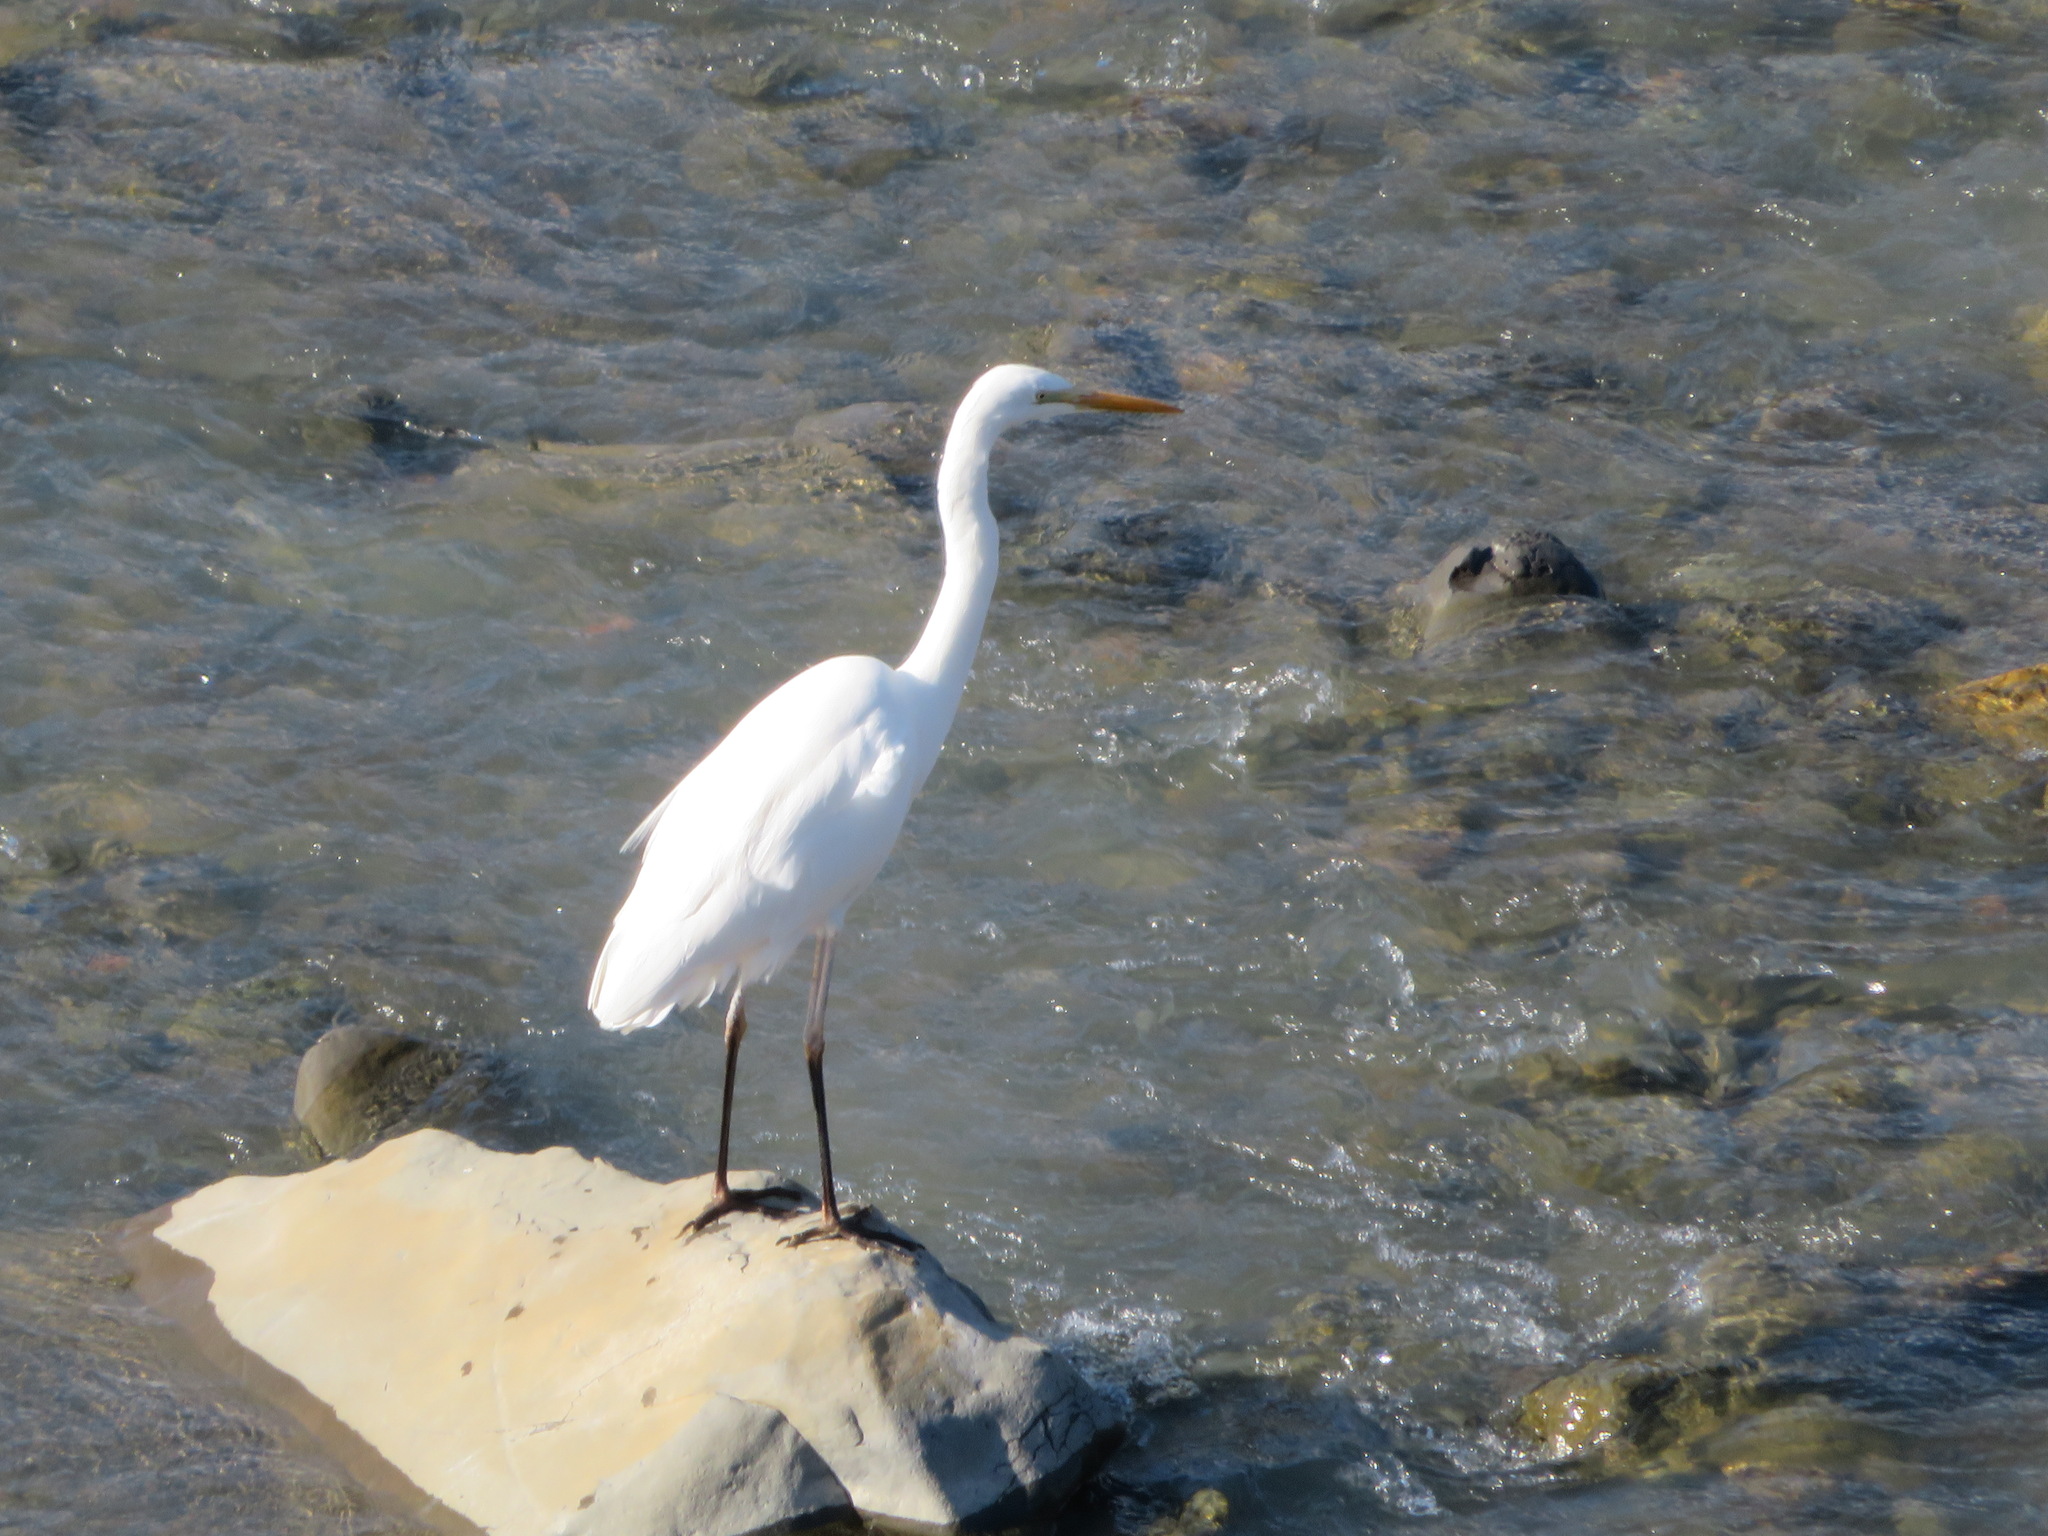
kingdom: Animalia
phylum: Chordata
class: Aves
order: Pelecaniformes
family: Ardeidae
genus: Egretta
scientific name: Egretta intermedia
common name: Intermediate egret
